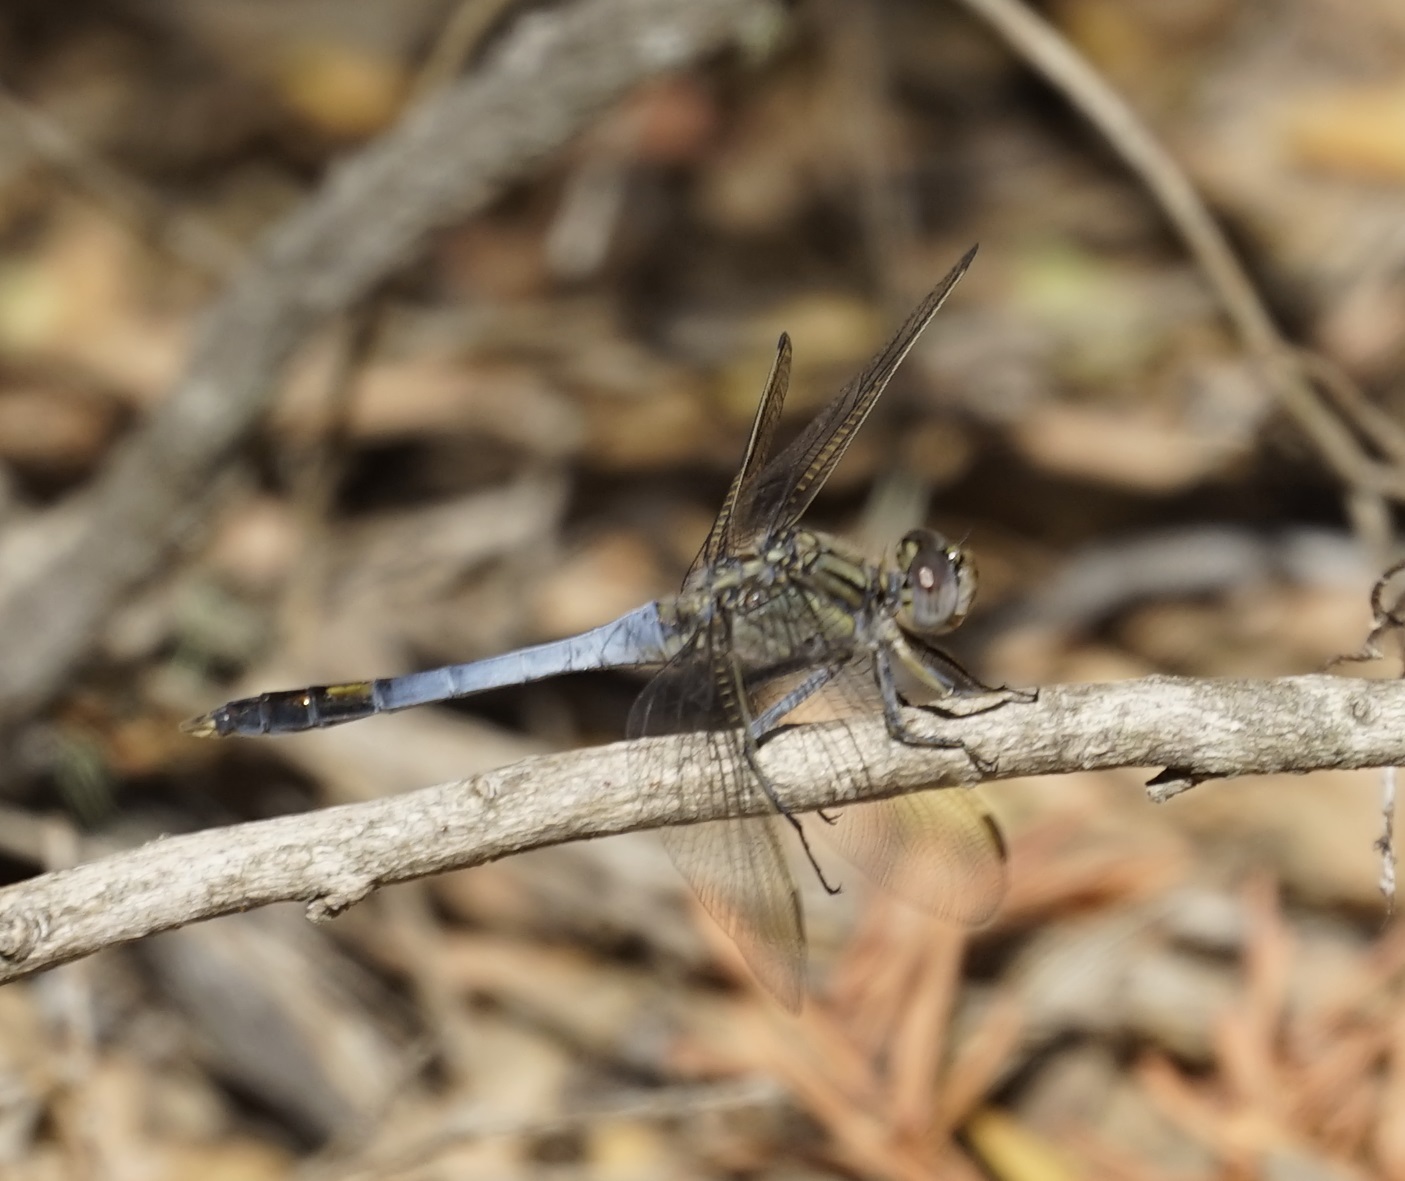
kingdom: Animalia
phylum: Arthropoda
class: Insecta
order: Odonata
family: Libellulidae
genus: Orthetrum
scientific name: Orthetrum caledonicum
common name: Blue skimmer
